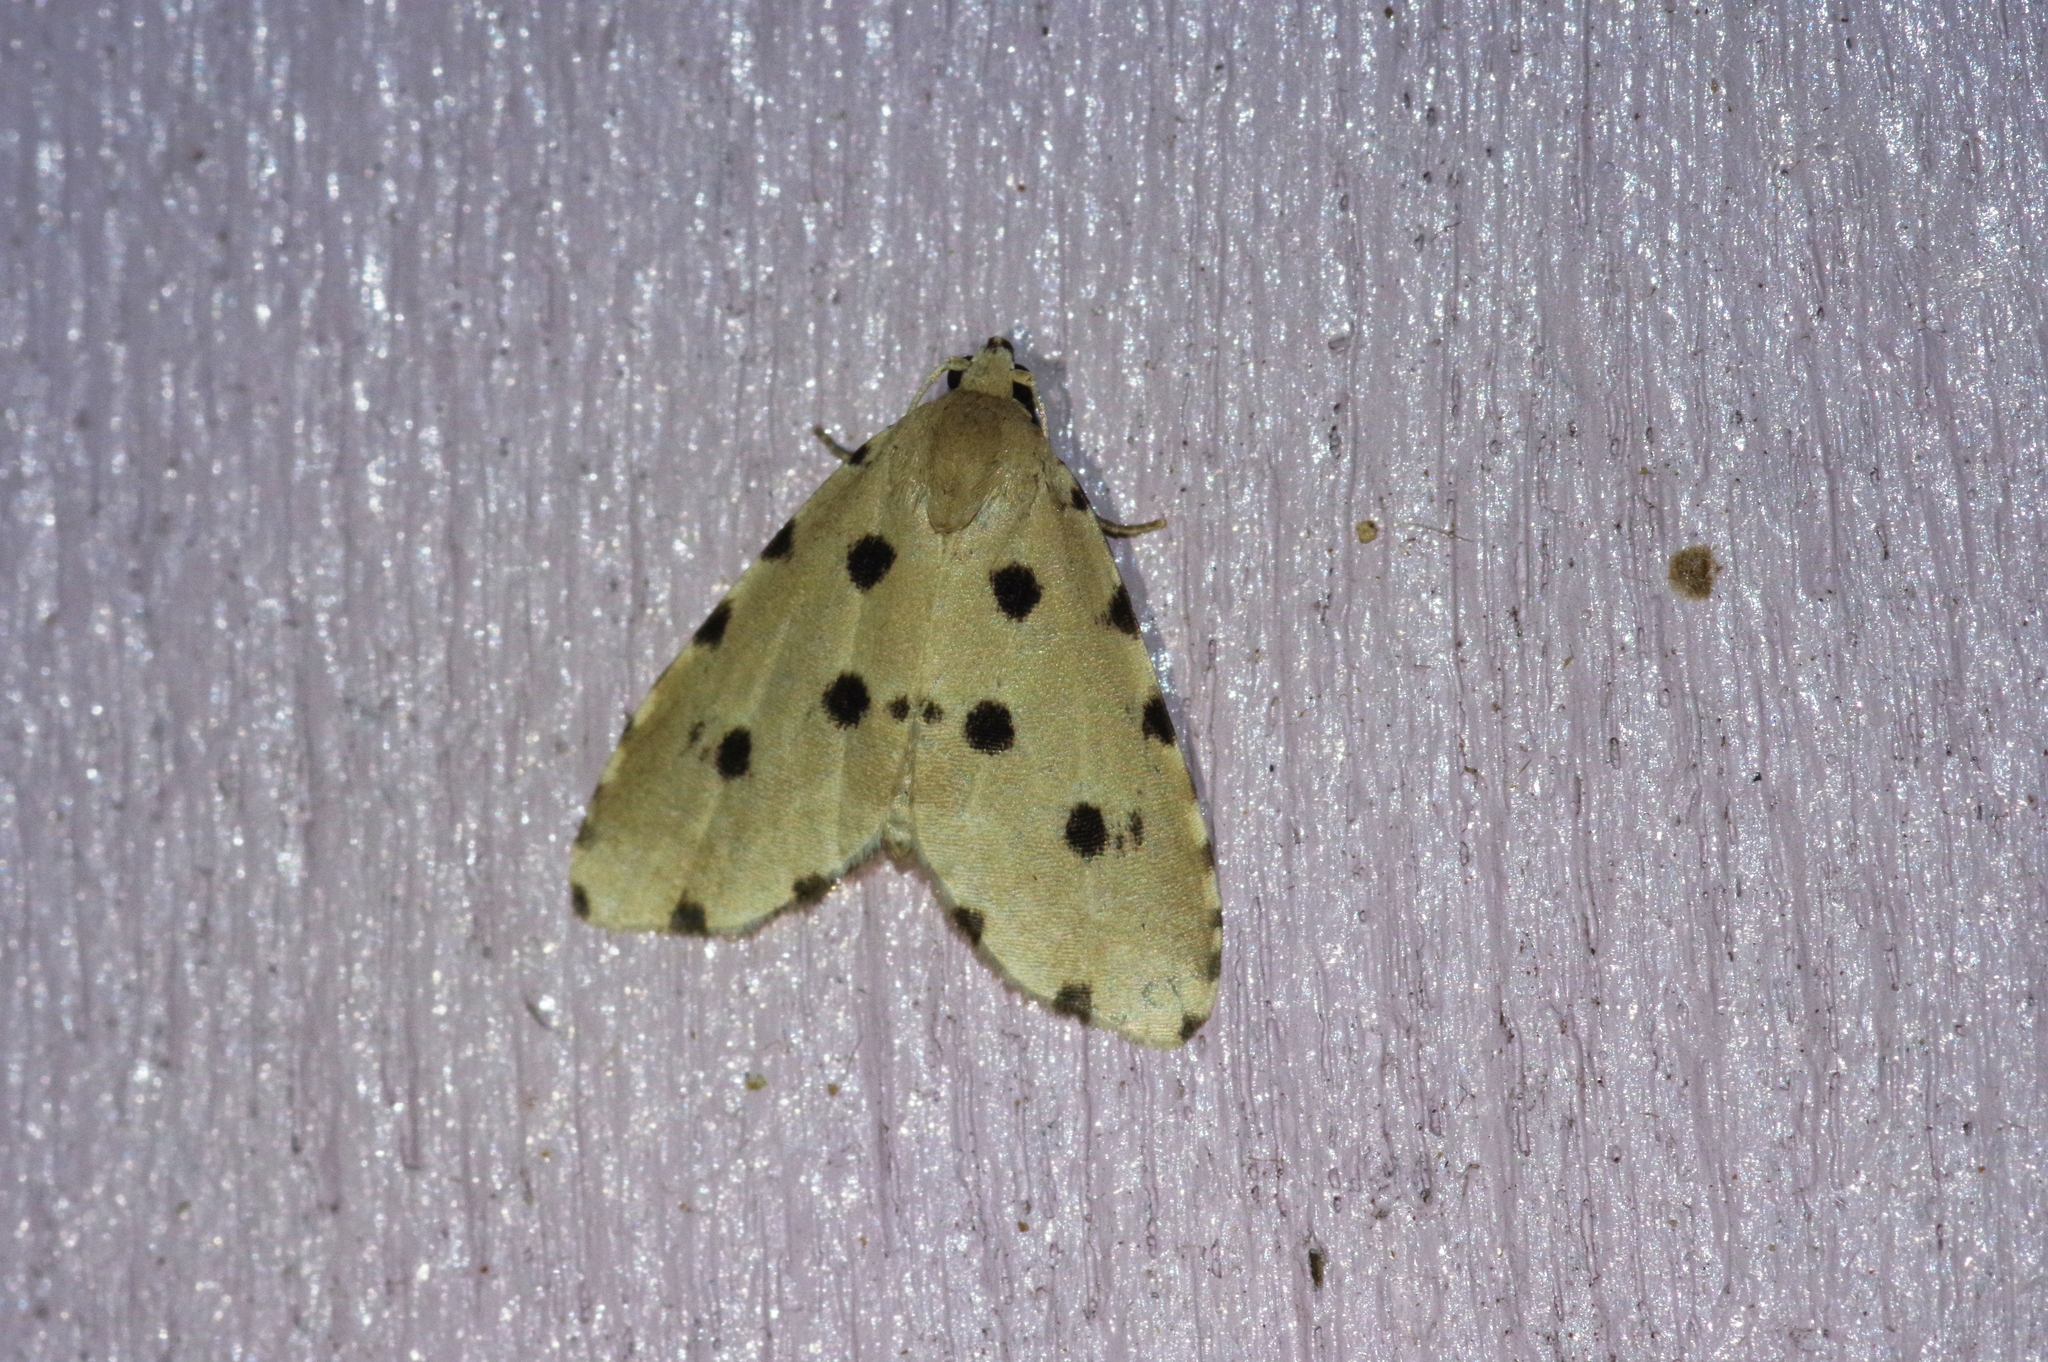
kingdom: Animalia
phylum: Arthropoda
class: Insecta
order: Lepidoptera
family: Noctuidae
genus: Metaemene
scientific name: Metaemene atrigutta
